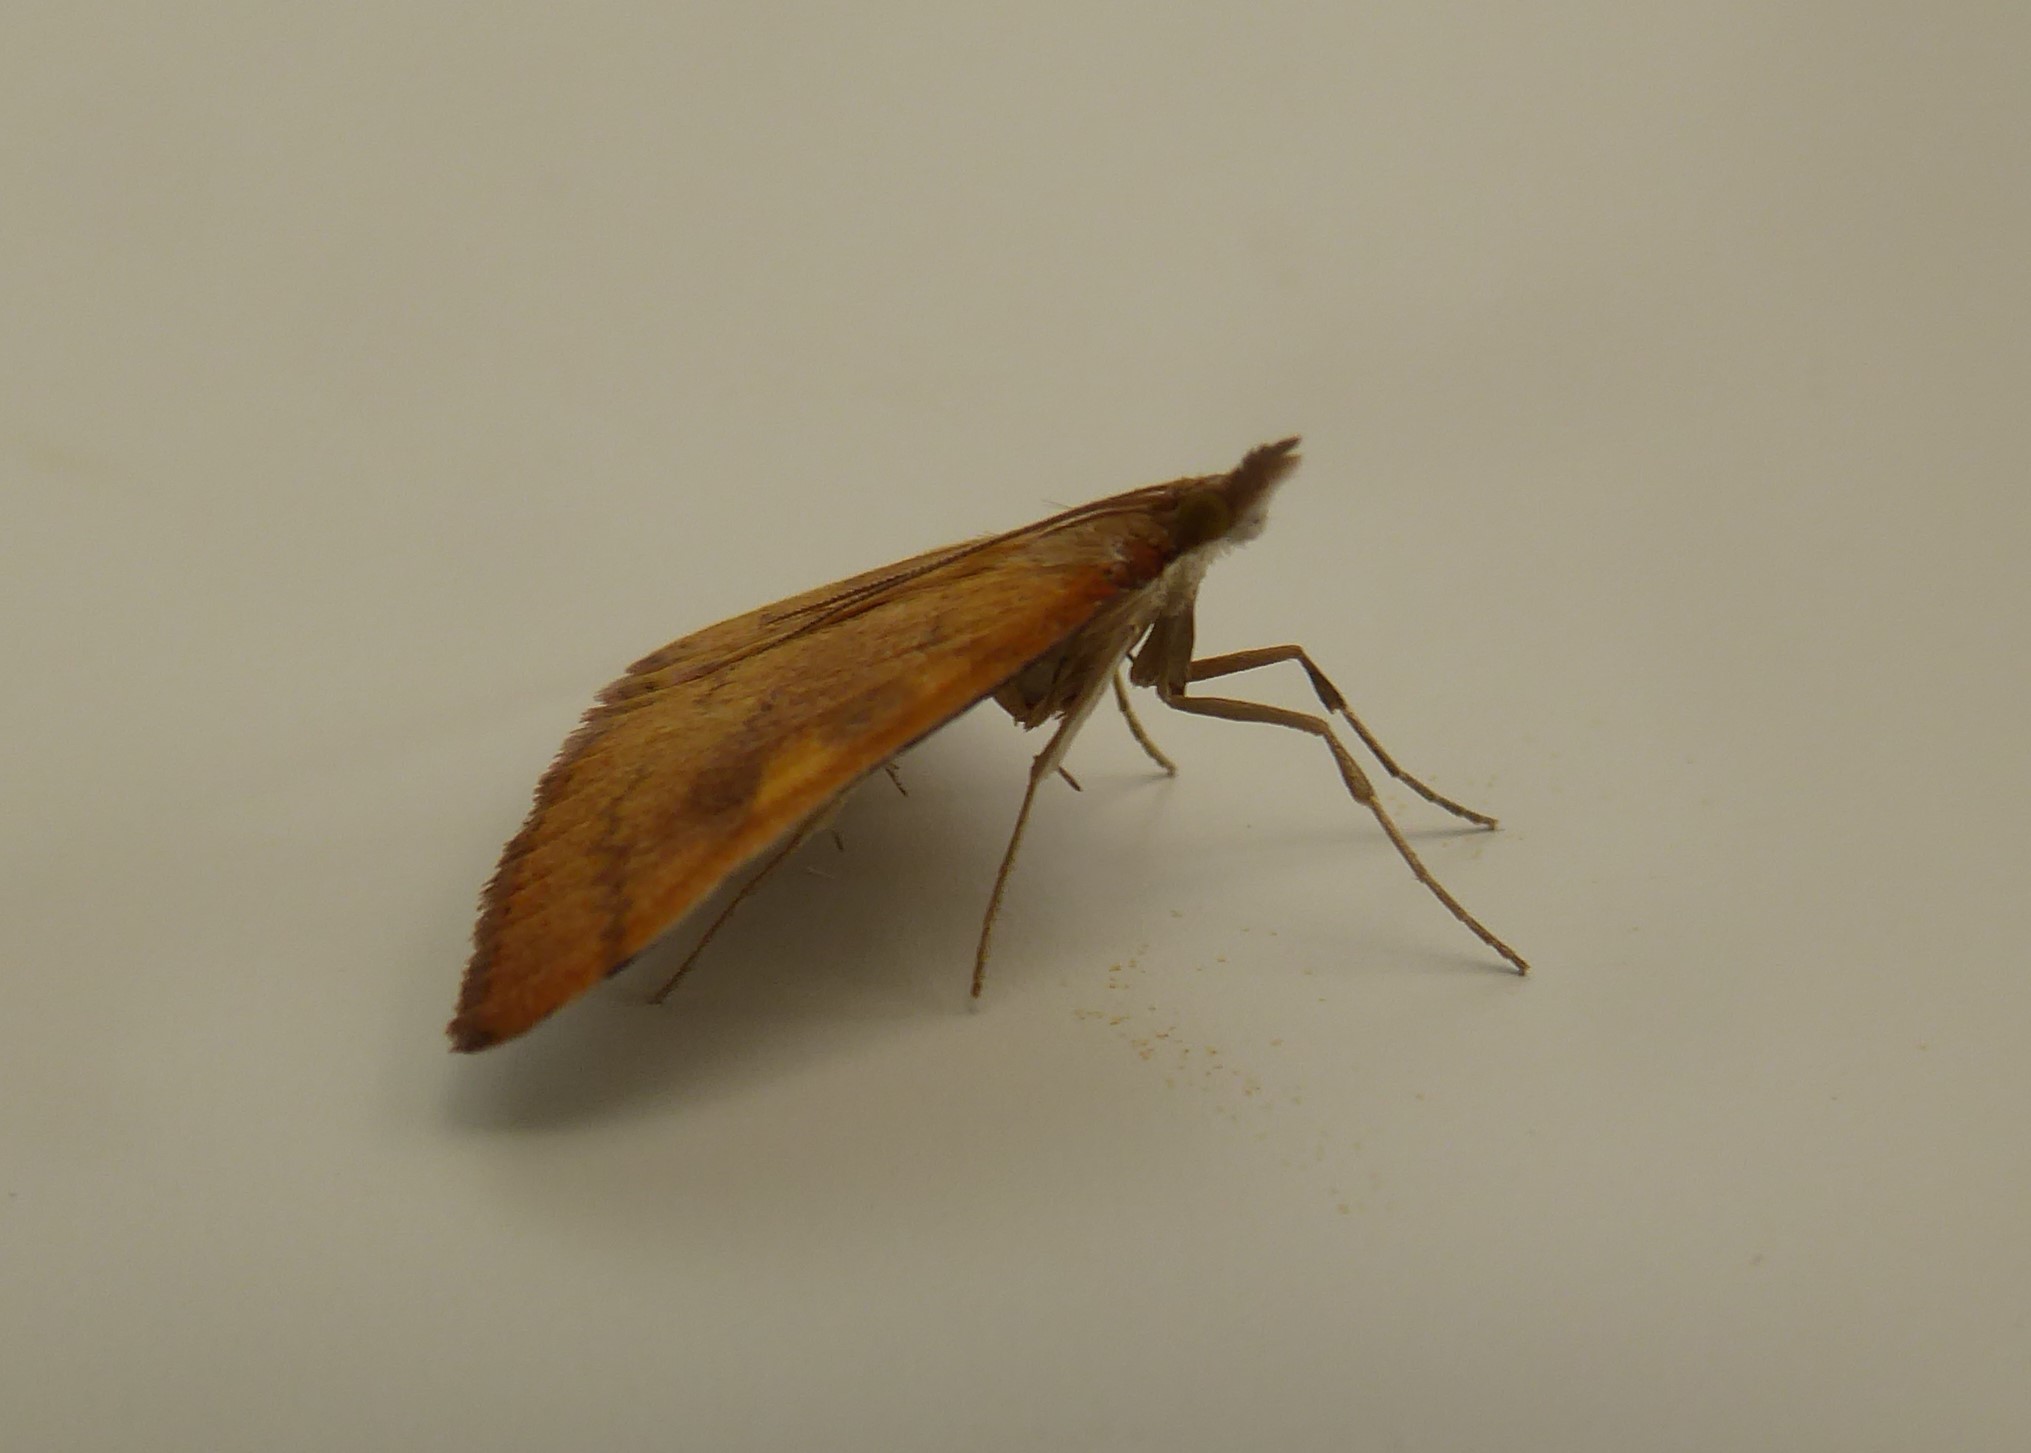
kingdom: Animalia
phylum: Arthropoda
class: Insecta
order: Lepidoptera
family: Crambidae
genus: Udea
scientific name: Udea Mnesictena flavidalis
